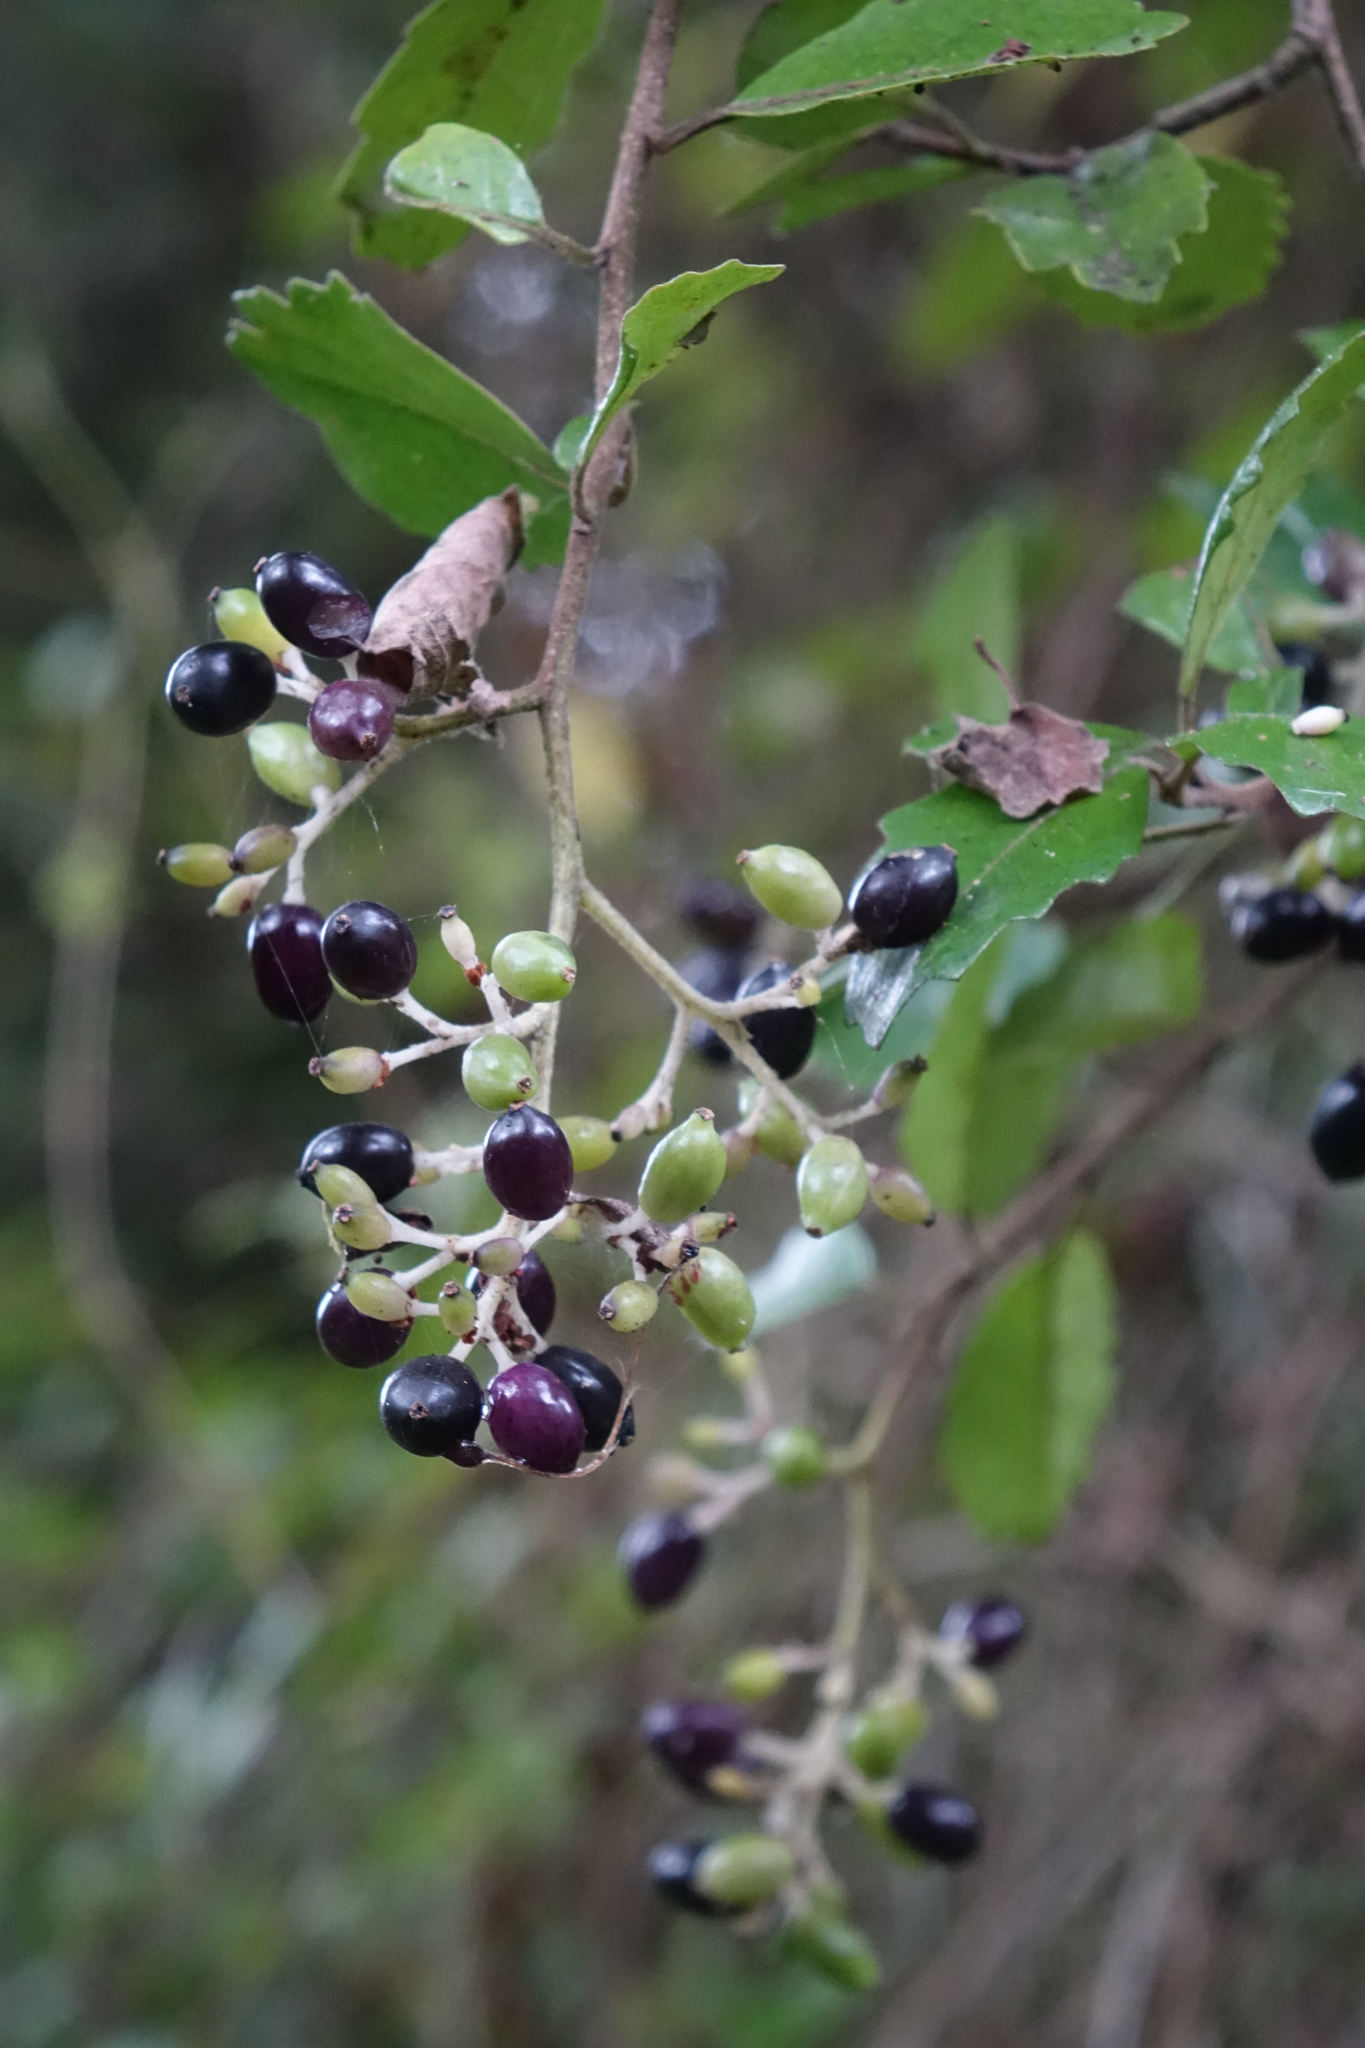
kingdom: Plantae
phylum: Tracheophyta
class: Magnoliopsida
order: Apiales
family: Pennantiaceae
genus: Pennantia
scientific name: Pennantia corymbosa
